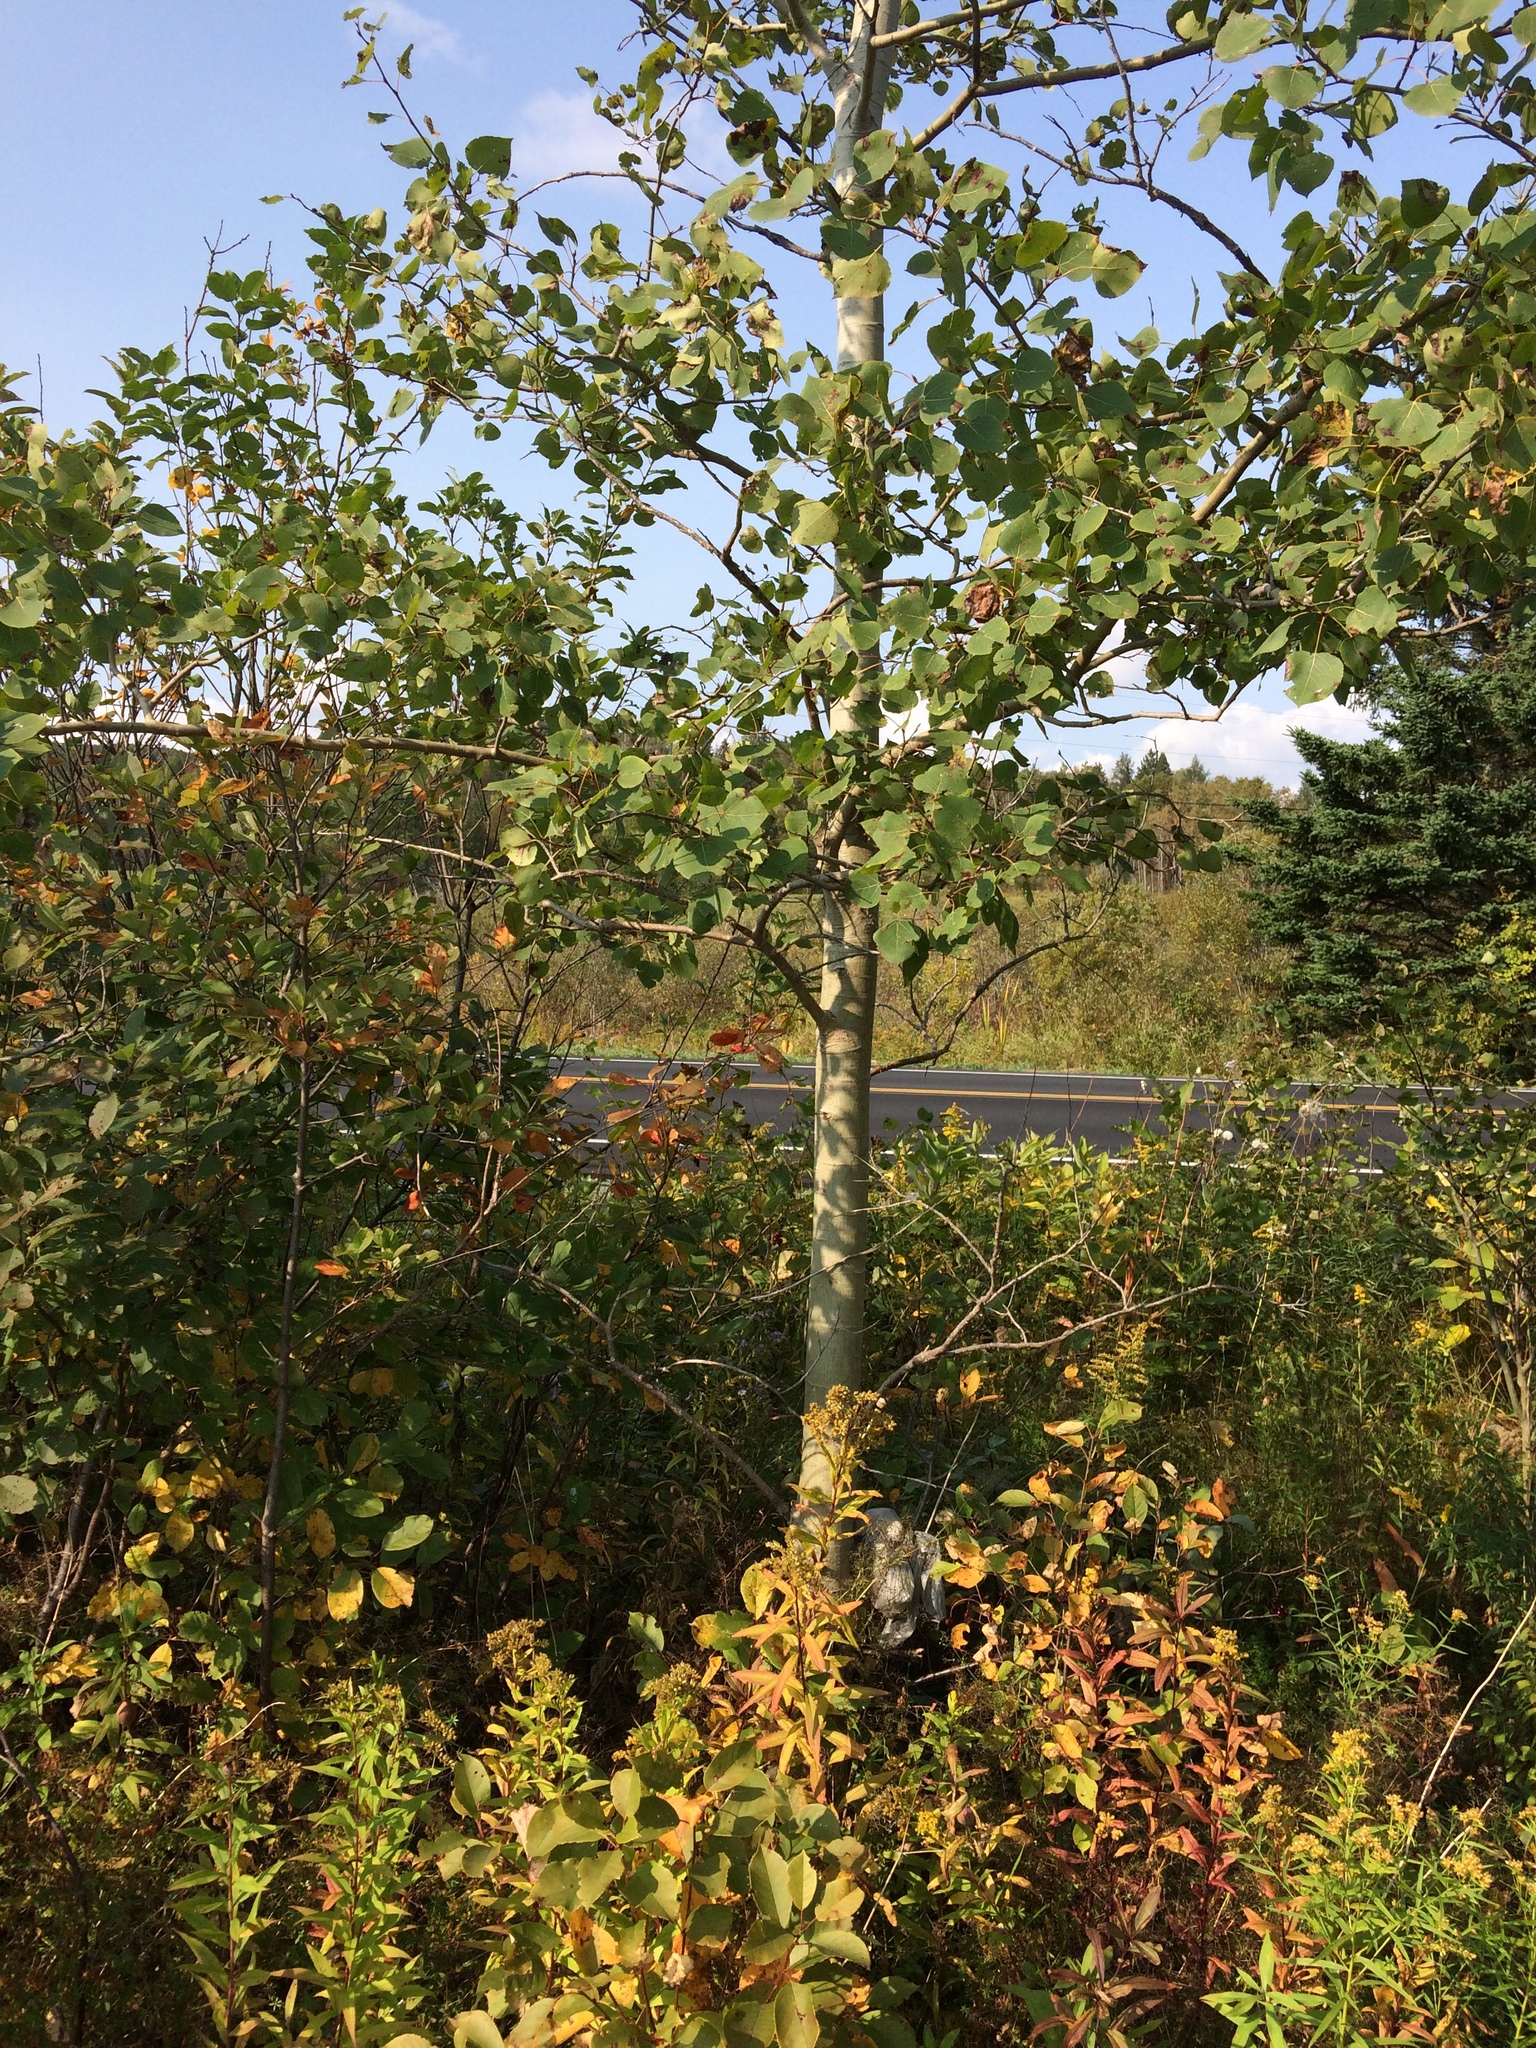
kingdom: Plantae
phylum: Tracheophyta
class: Magnoliopsida
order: Malpighiales
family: Salicaceae
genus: Populus
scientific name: Populus tremuloides
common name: Quaking aspen
